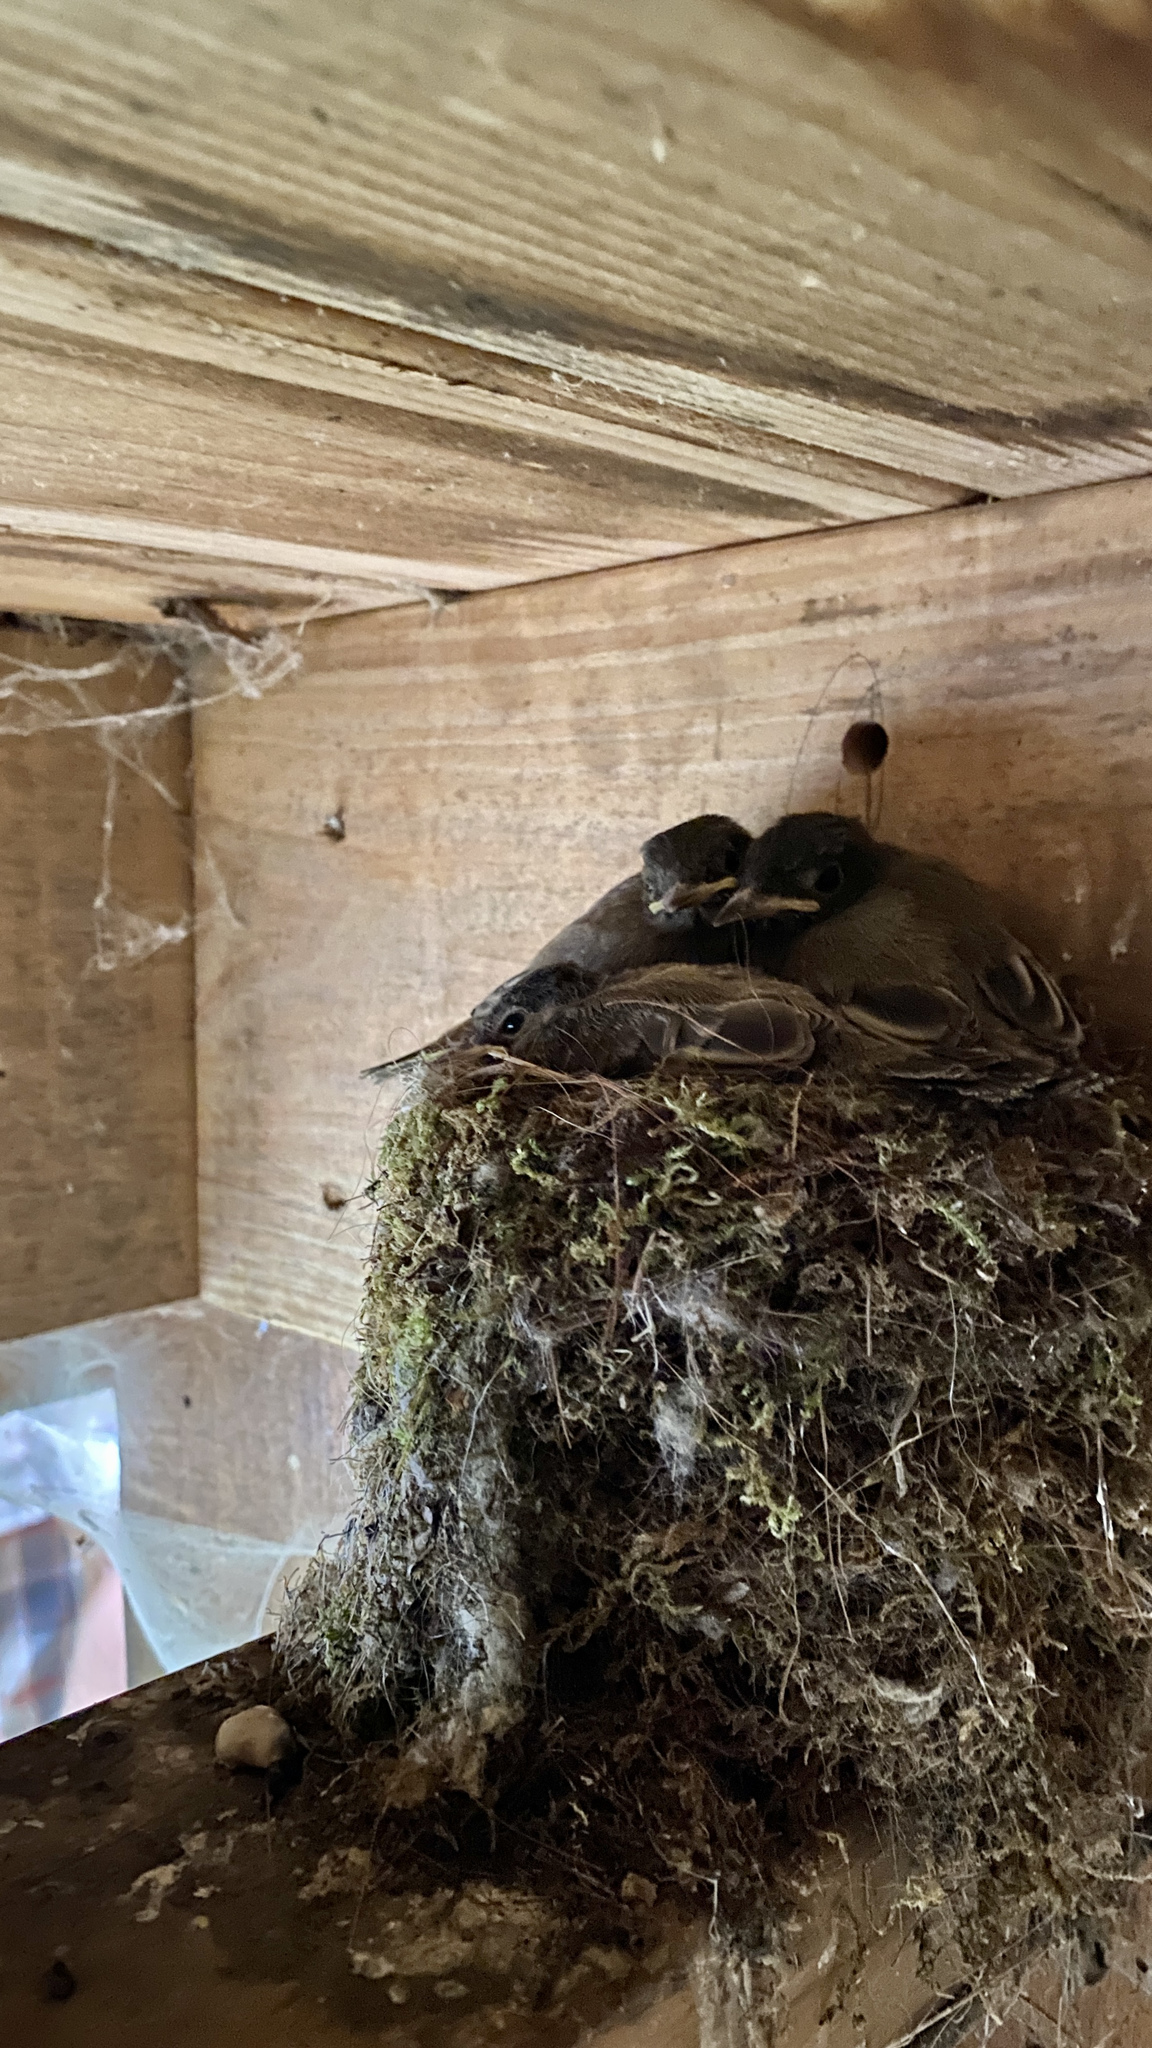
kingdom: Animalia
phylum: Chordata
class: Aves
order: Passeriformes
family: Tyrannidae
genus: Sayornis
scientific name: Sayornis phoebe
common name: Eastern phoebe
